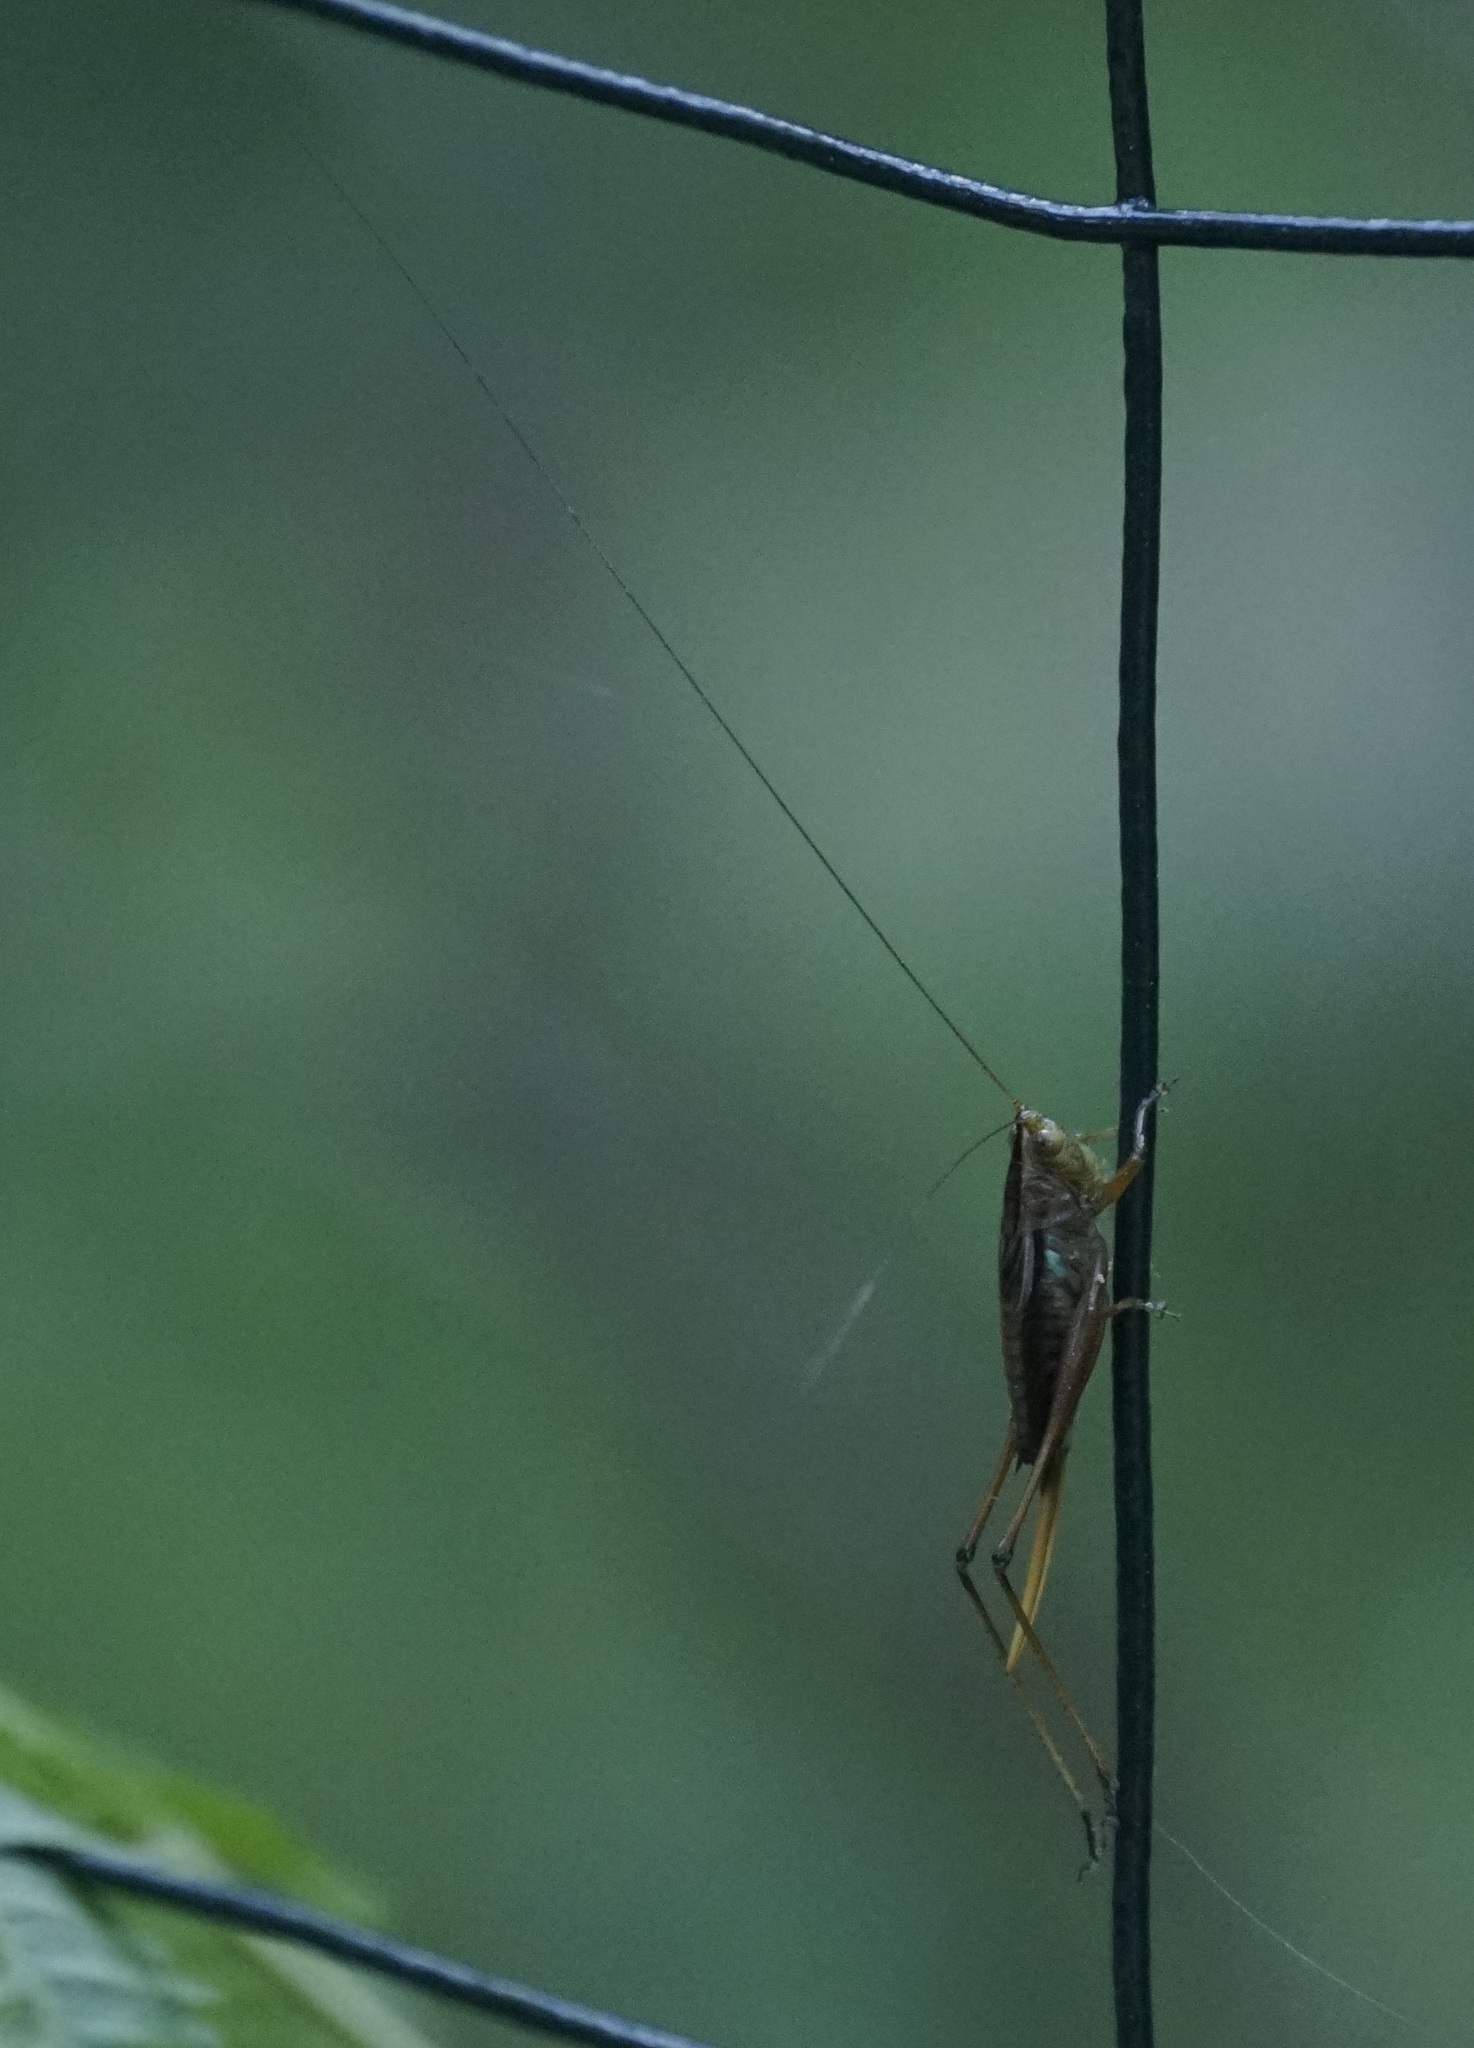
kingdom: Animalia
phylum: Arthropoda
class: Insecta
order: Orthoptera
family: Tettigoniidae
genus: Conocephalus
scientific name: Conocephalus semivittatus
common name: Blackish meadow katydid
